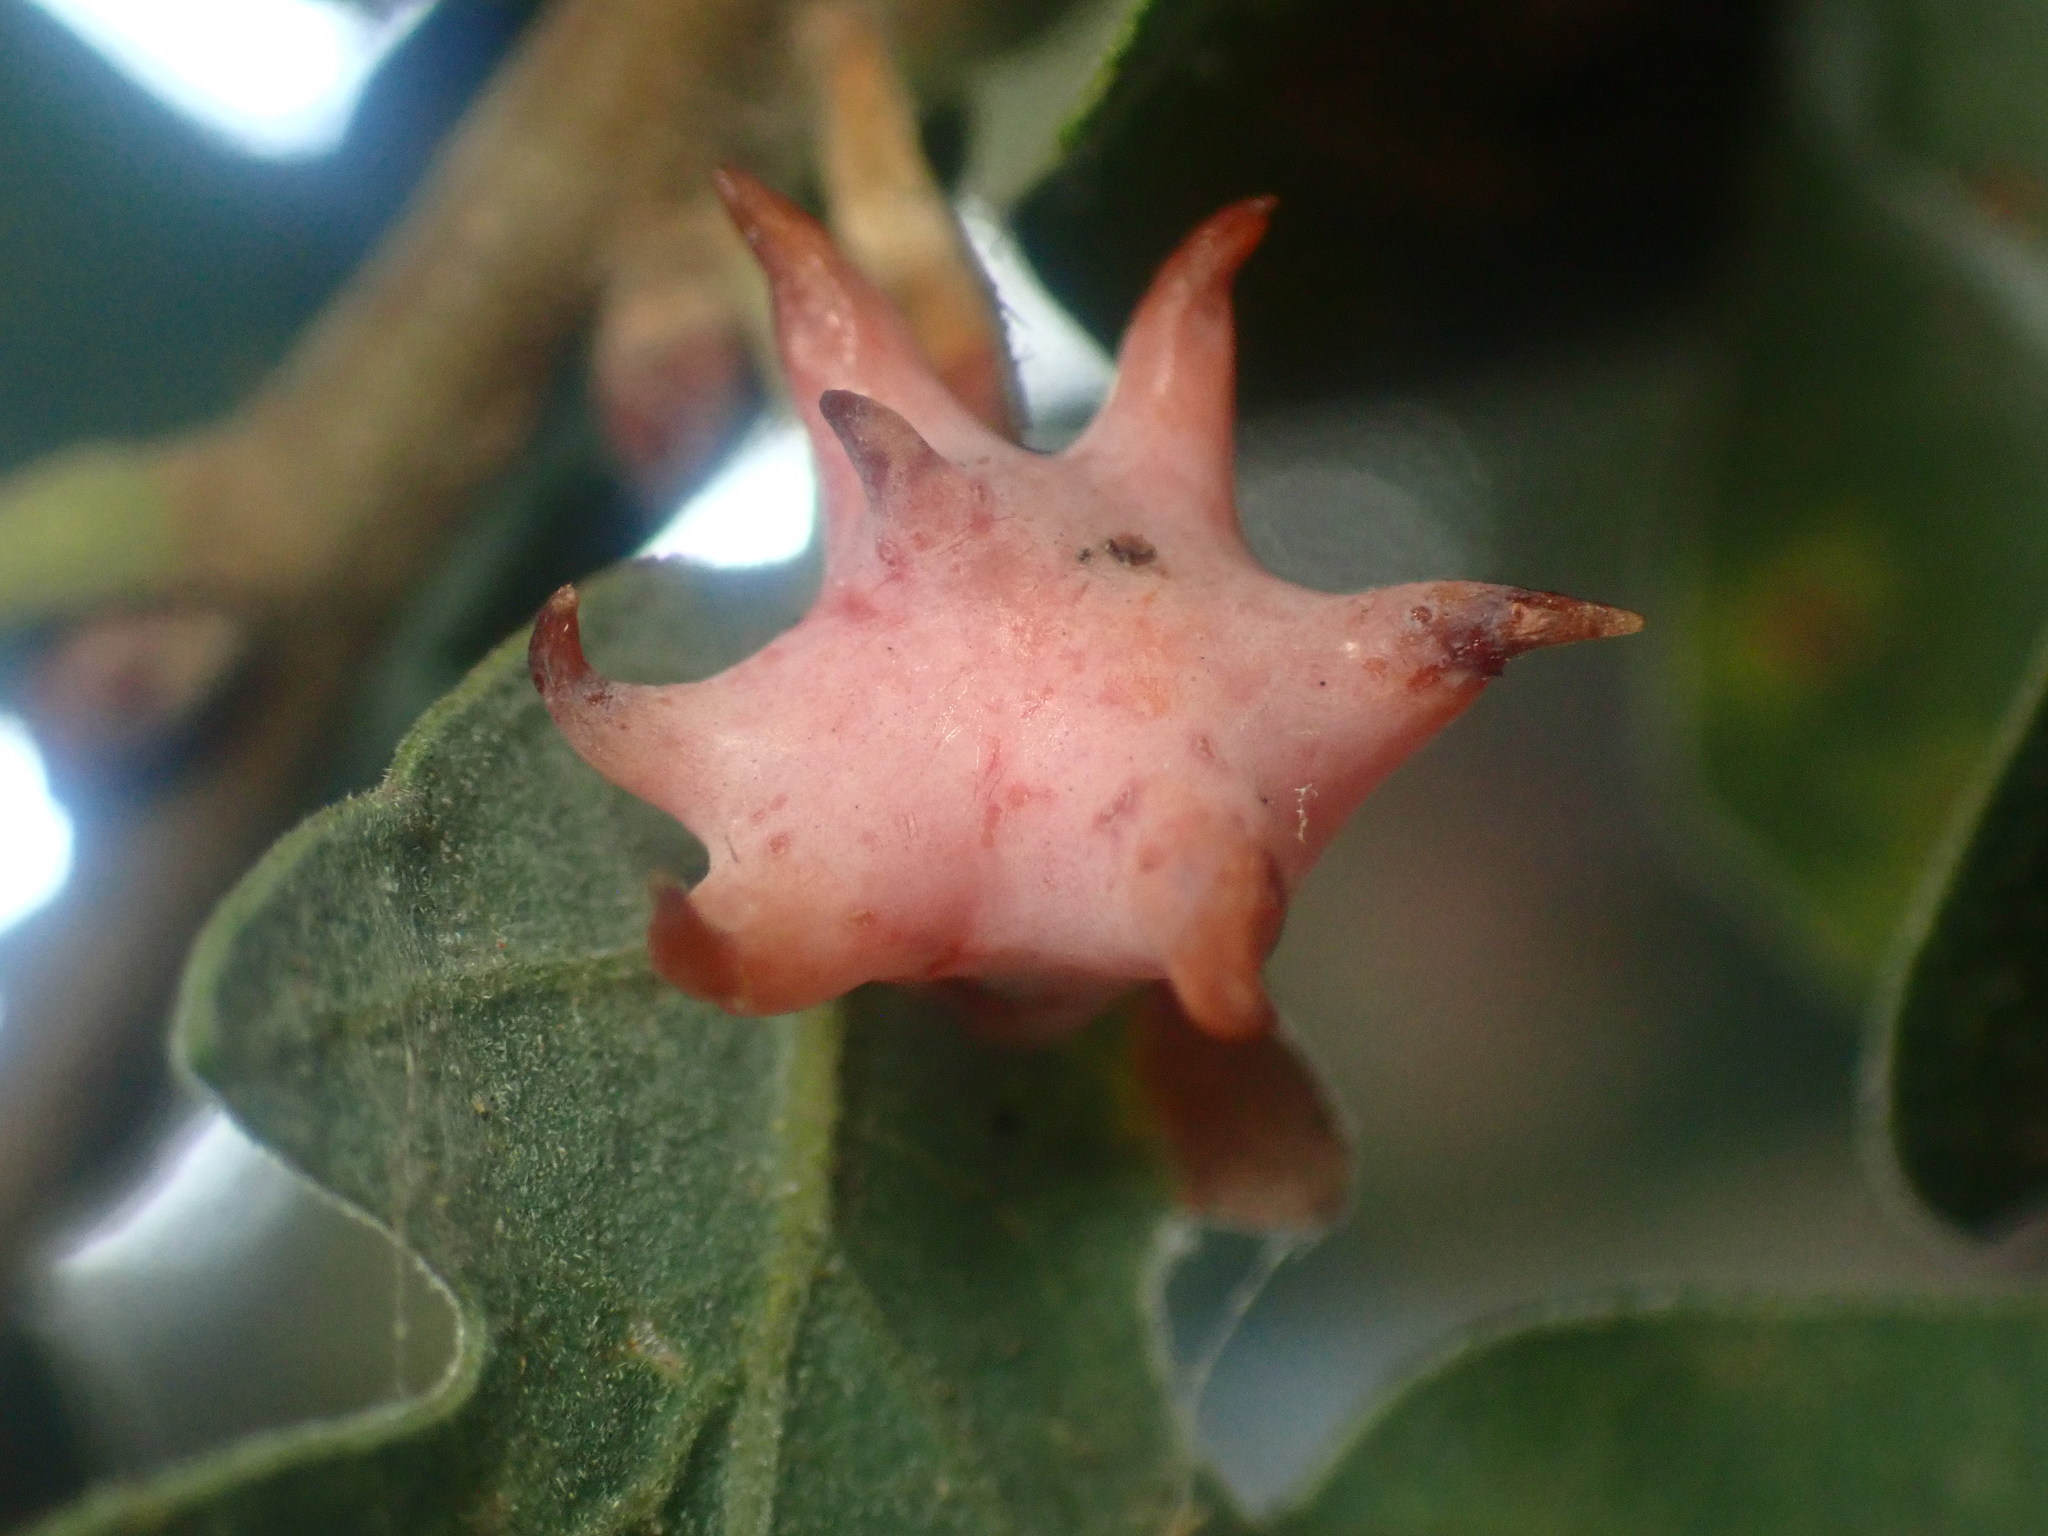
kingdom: Animalia
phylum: Arthropoda
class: Insecta
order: Hymenoptera
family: Cynipidae
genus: Cynips
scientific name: Cynips douglasi
